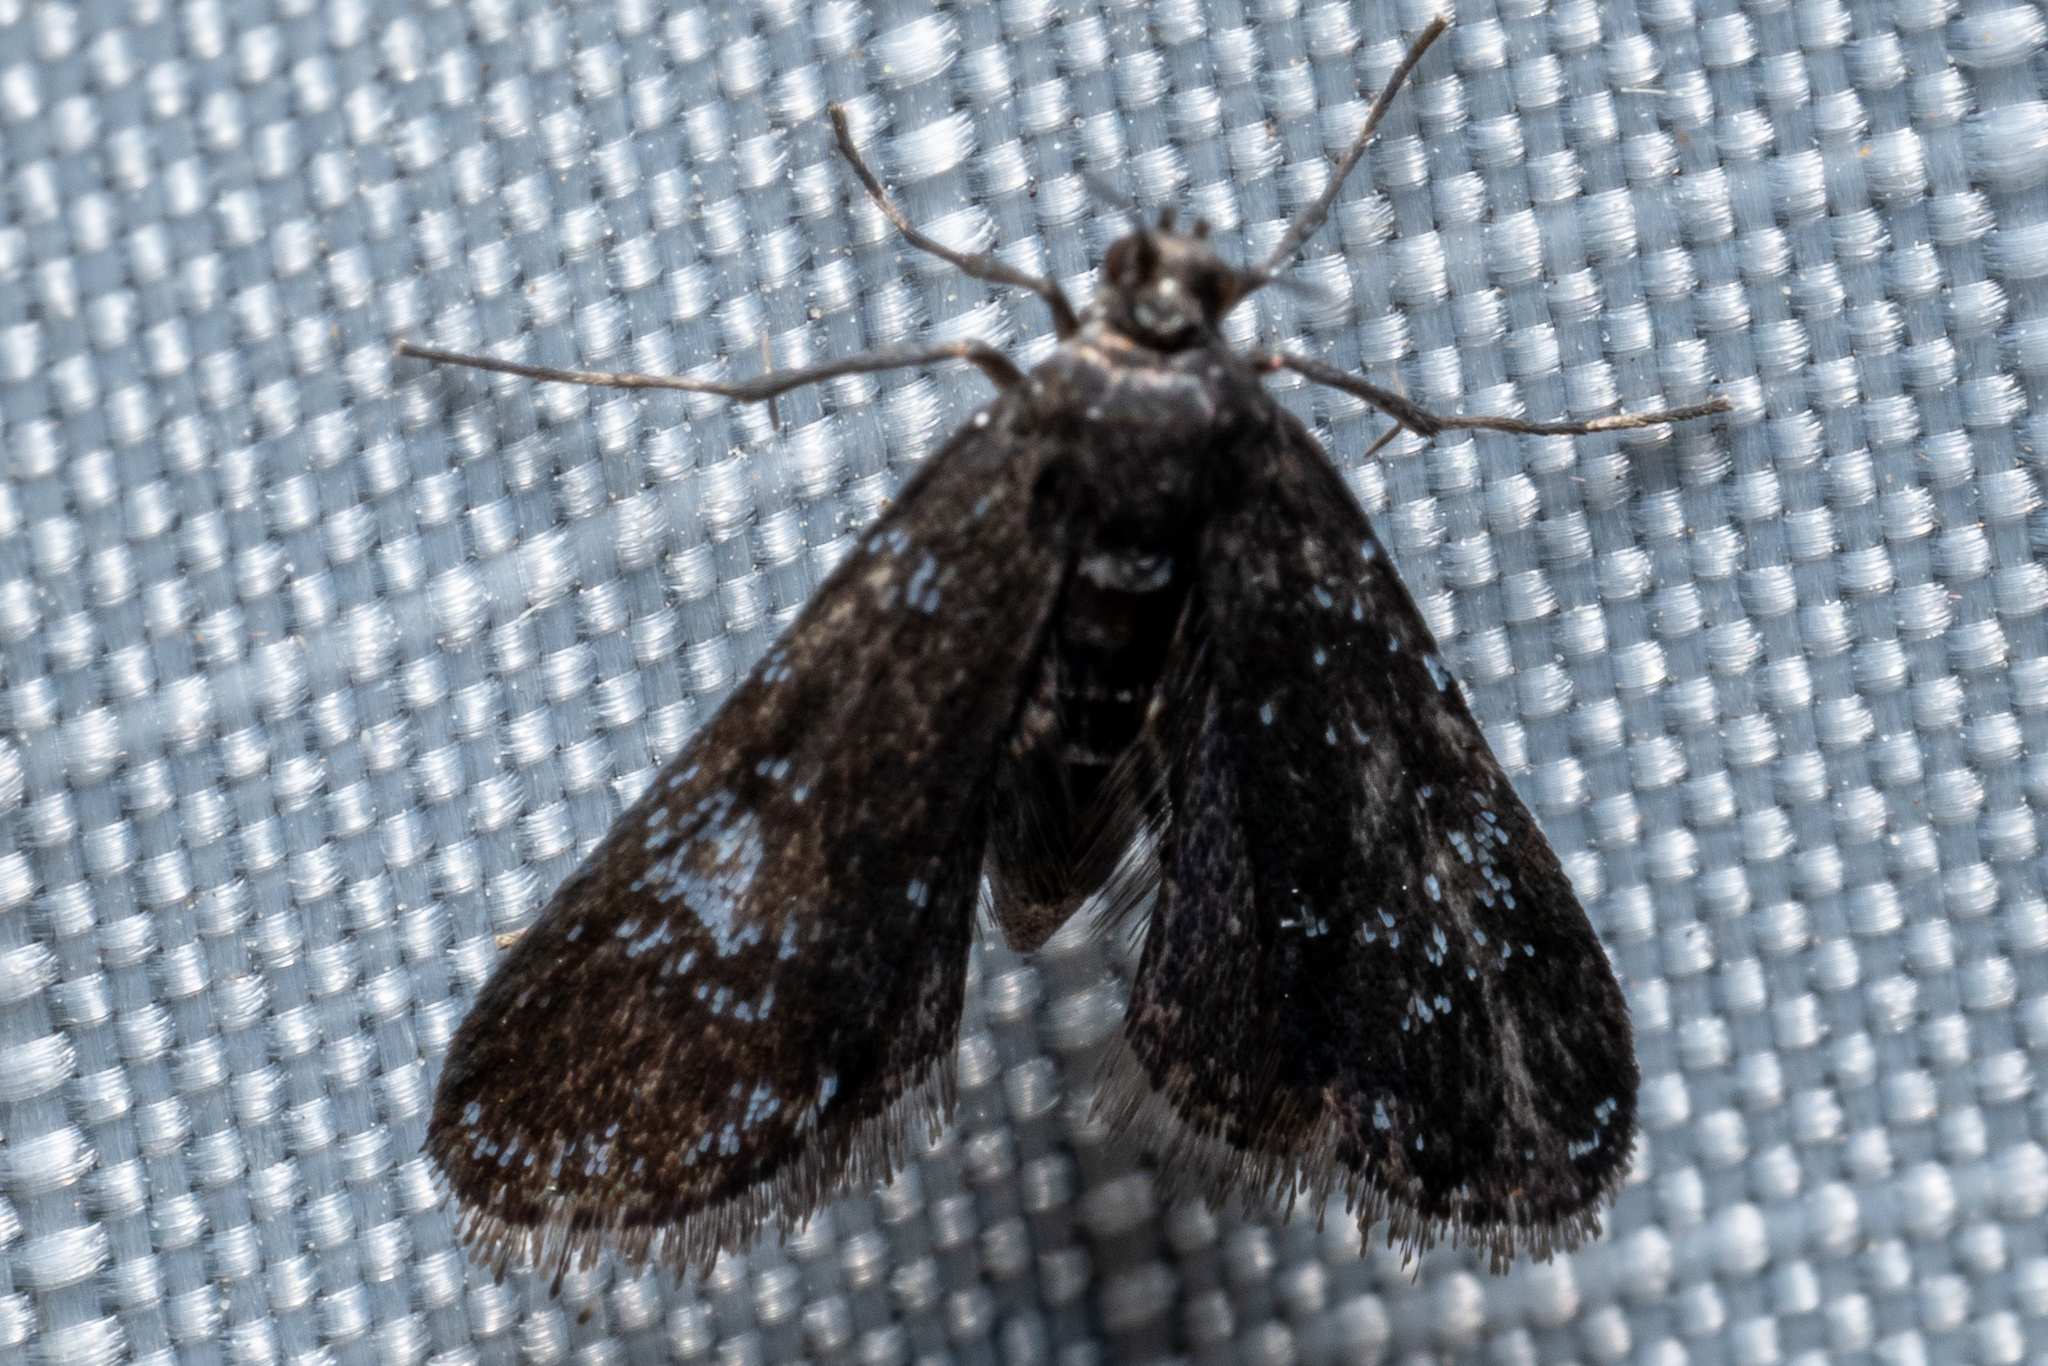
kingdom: Animalia
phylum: Arthropoda
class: Insecta
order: Lepidoptera
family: Crambidae
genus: Elophila
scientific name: Elophila tinealis
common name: Black duckweed moth
